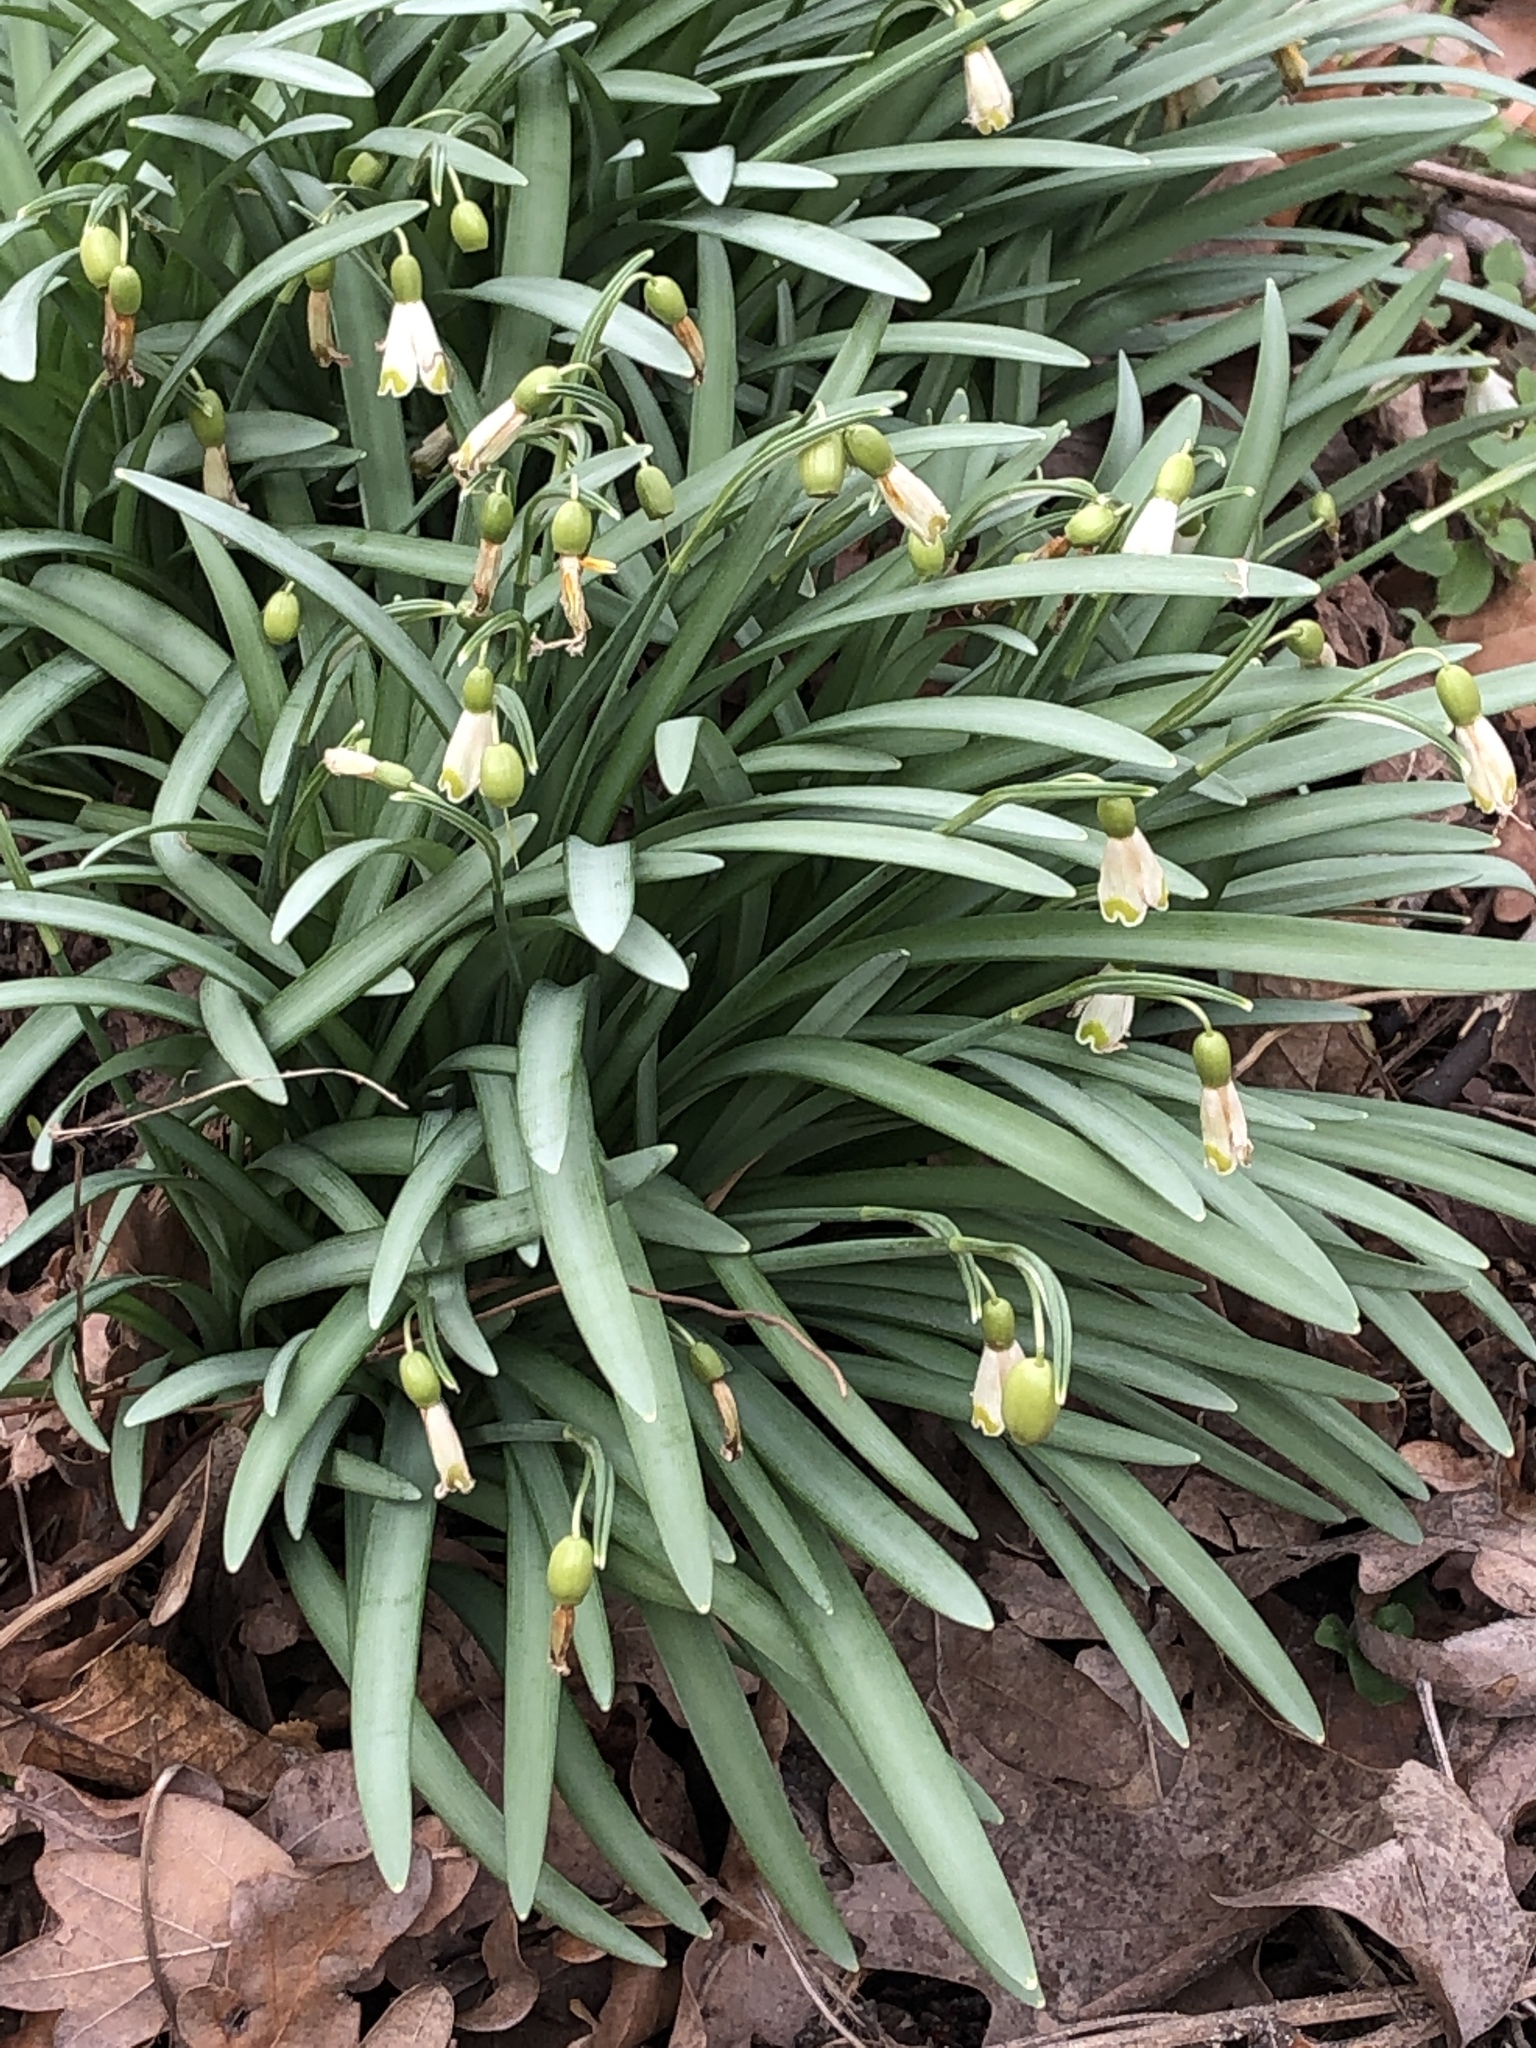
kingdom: Plantae
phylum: Tracheophyta
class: Liliopsida
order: Asparagales
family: Amaryllidaceae
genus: Galanthus
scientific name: Galanthus nivalis
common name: Snowdrop
